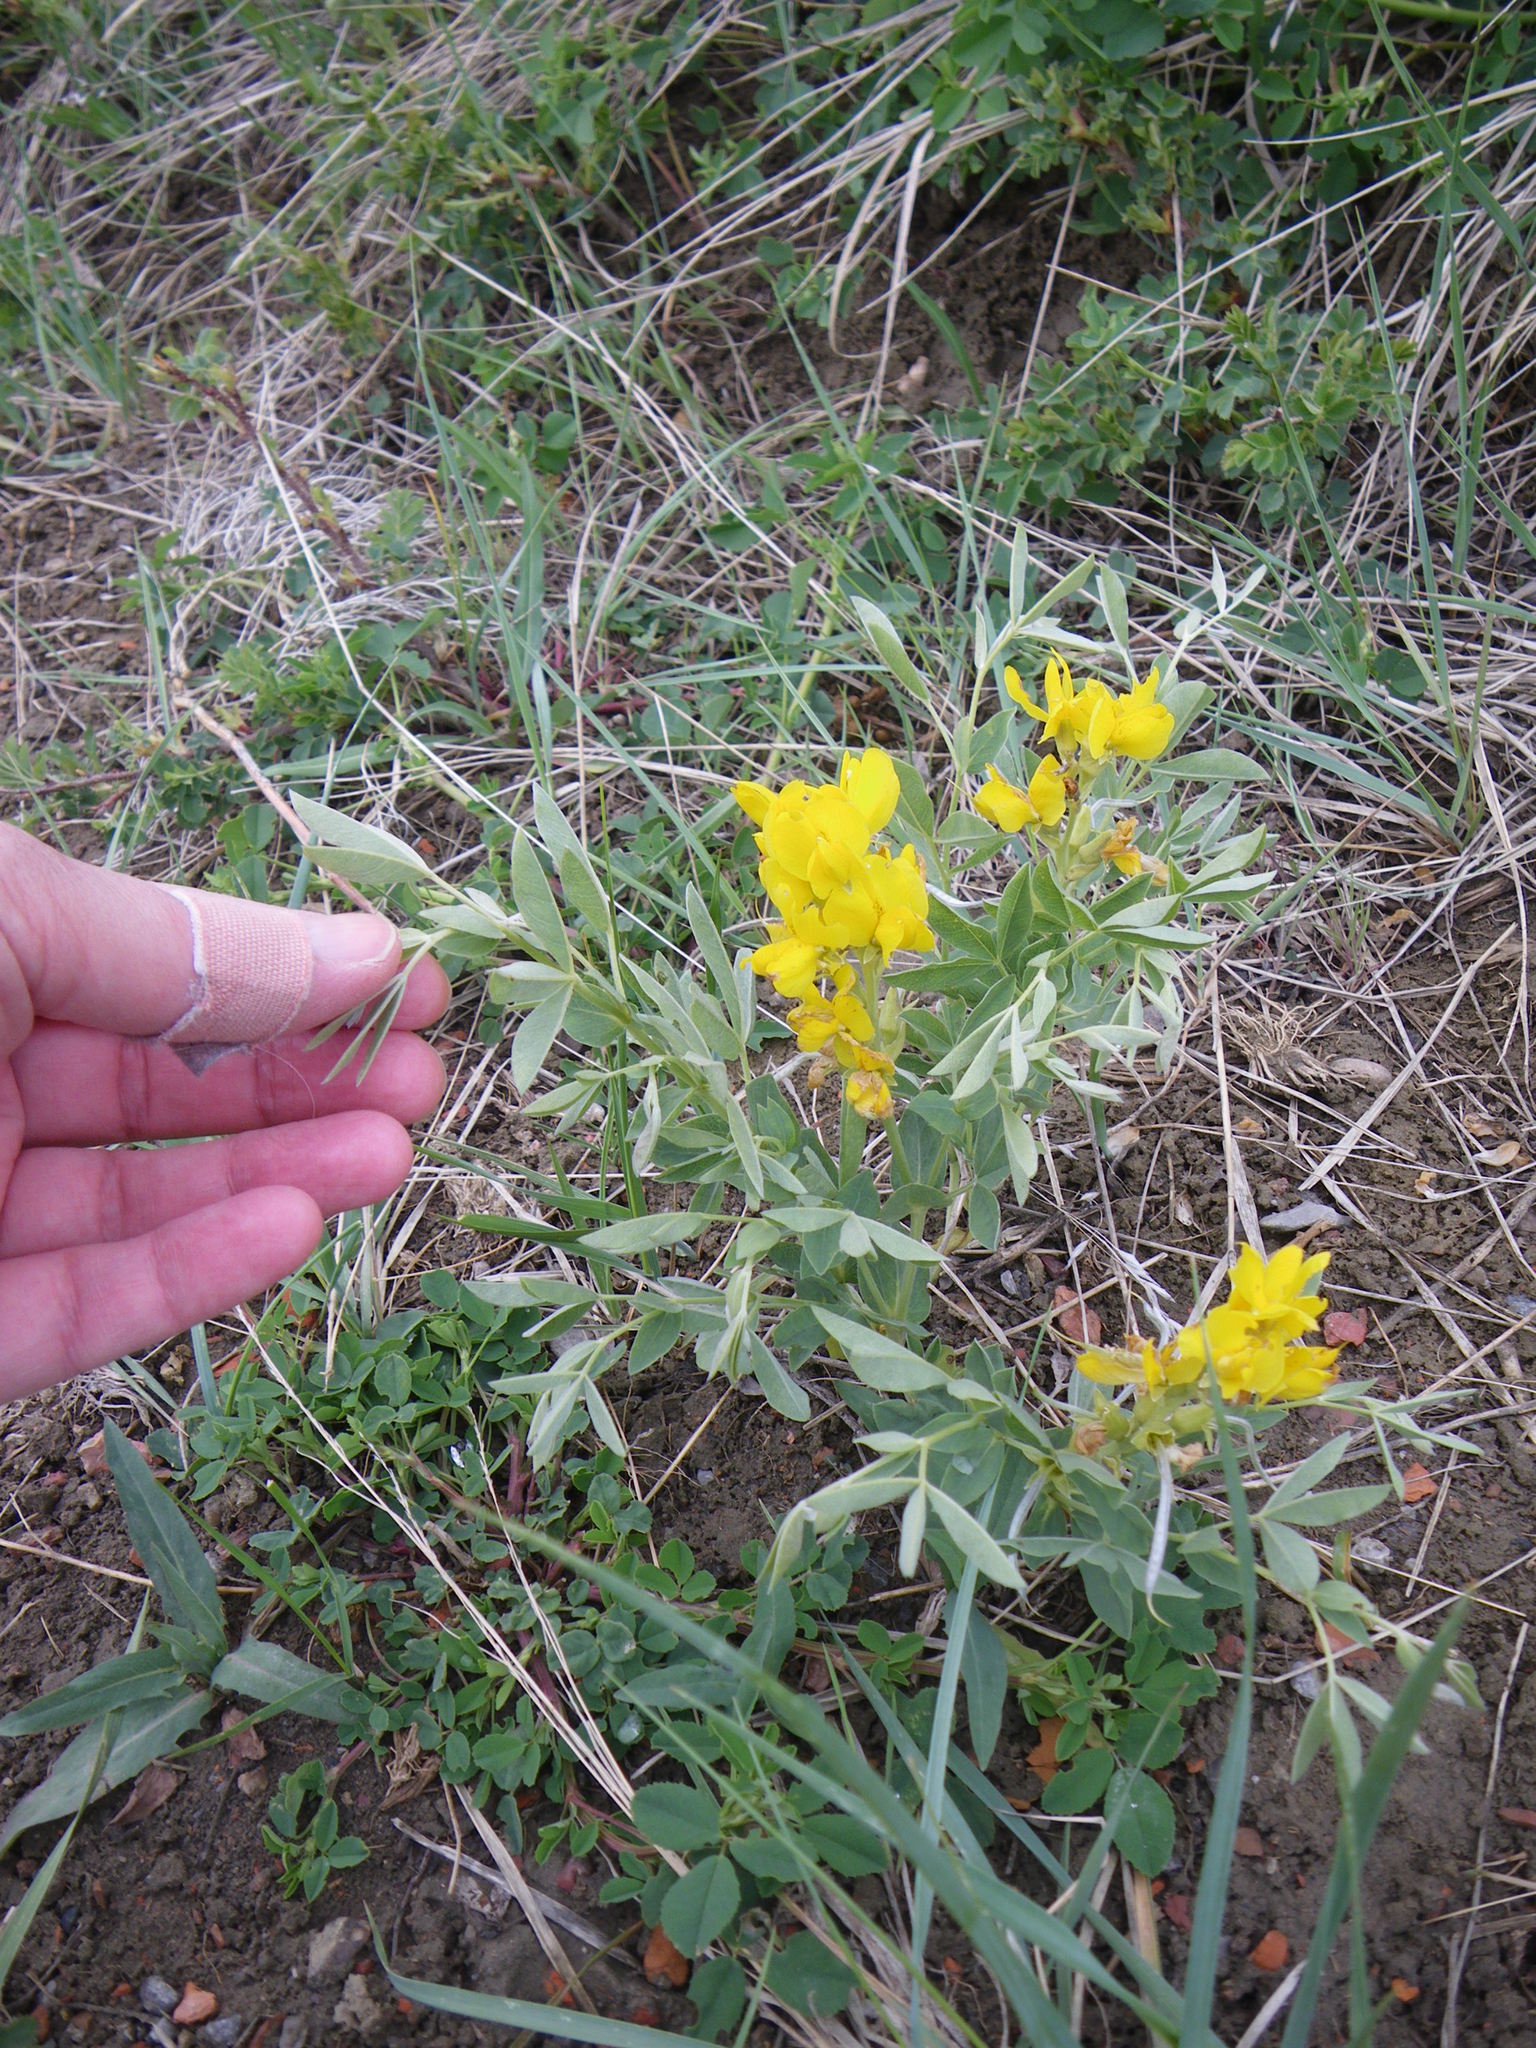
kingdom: Plantae
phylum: Tracheophyta
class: Magnoliopsida
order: Fabales
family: Fabaceae
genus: Thermopsis
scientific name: Thermopsis rhombifolia
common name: Circle-pod-pea
